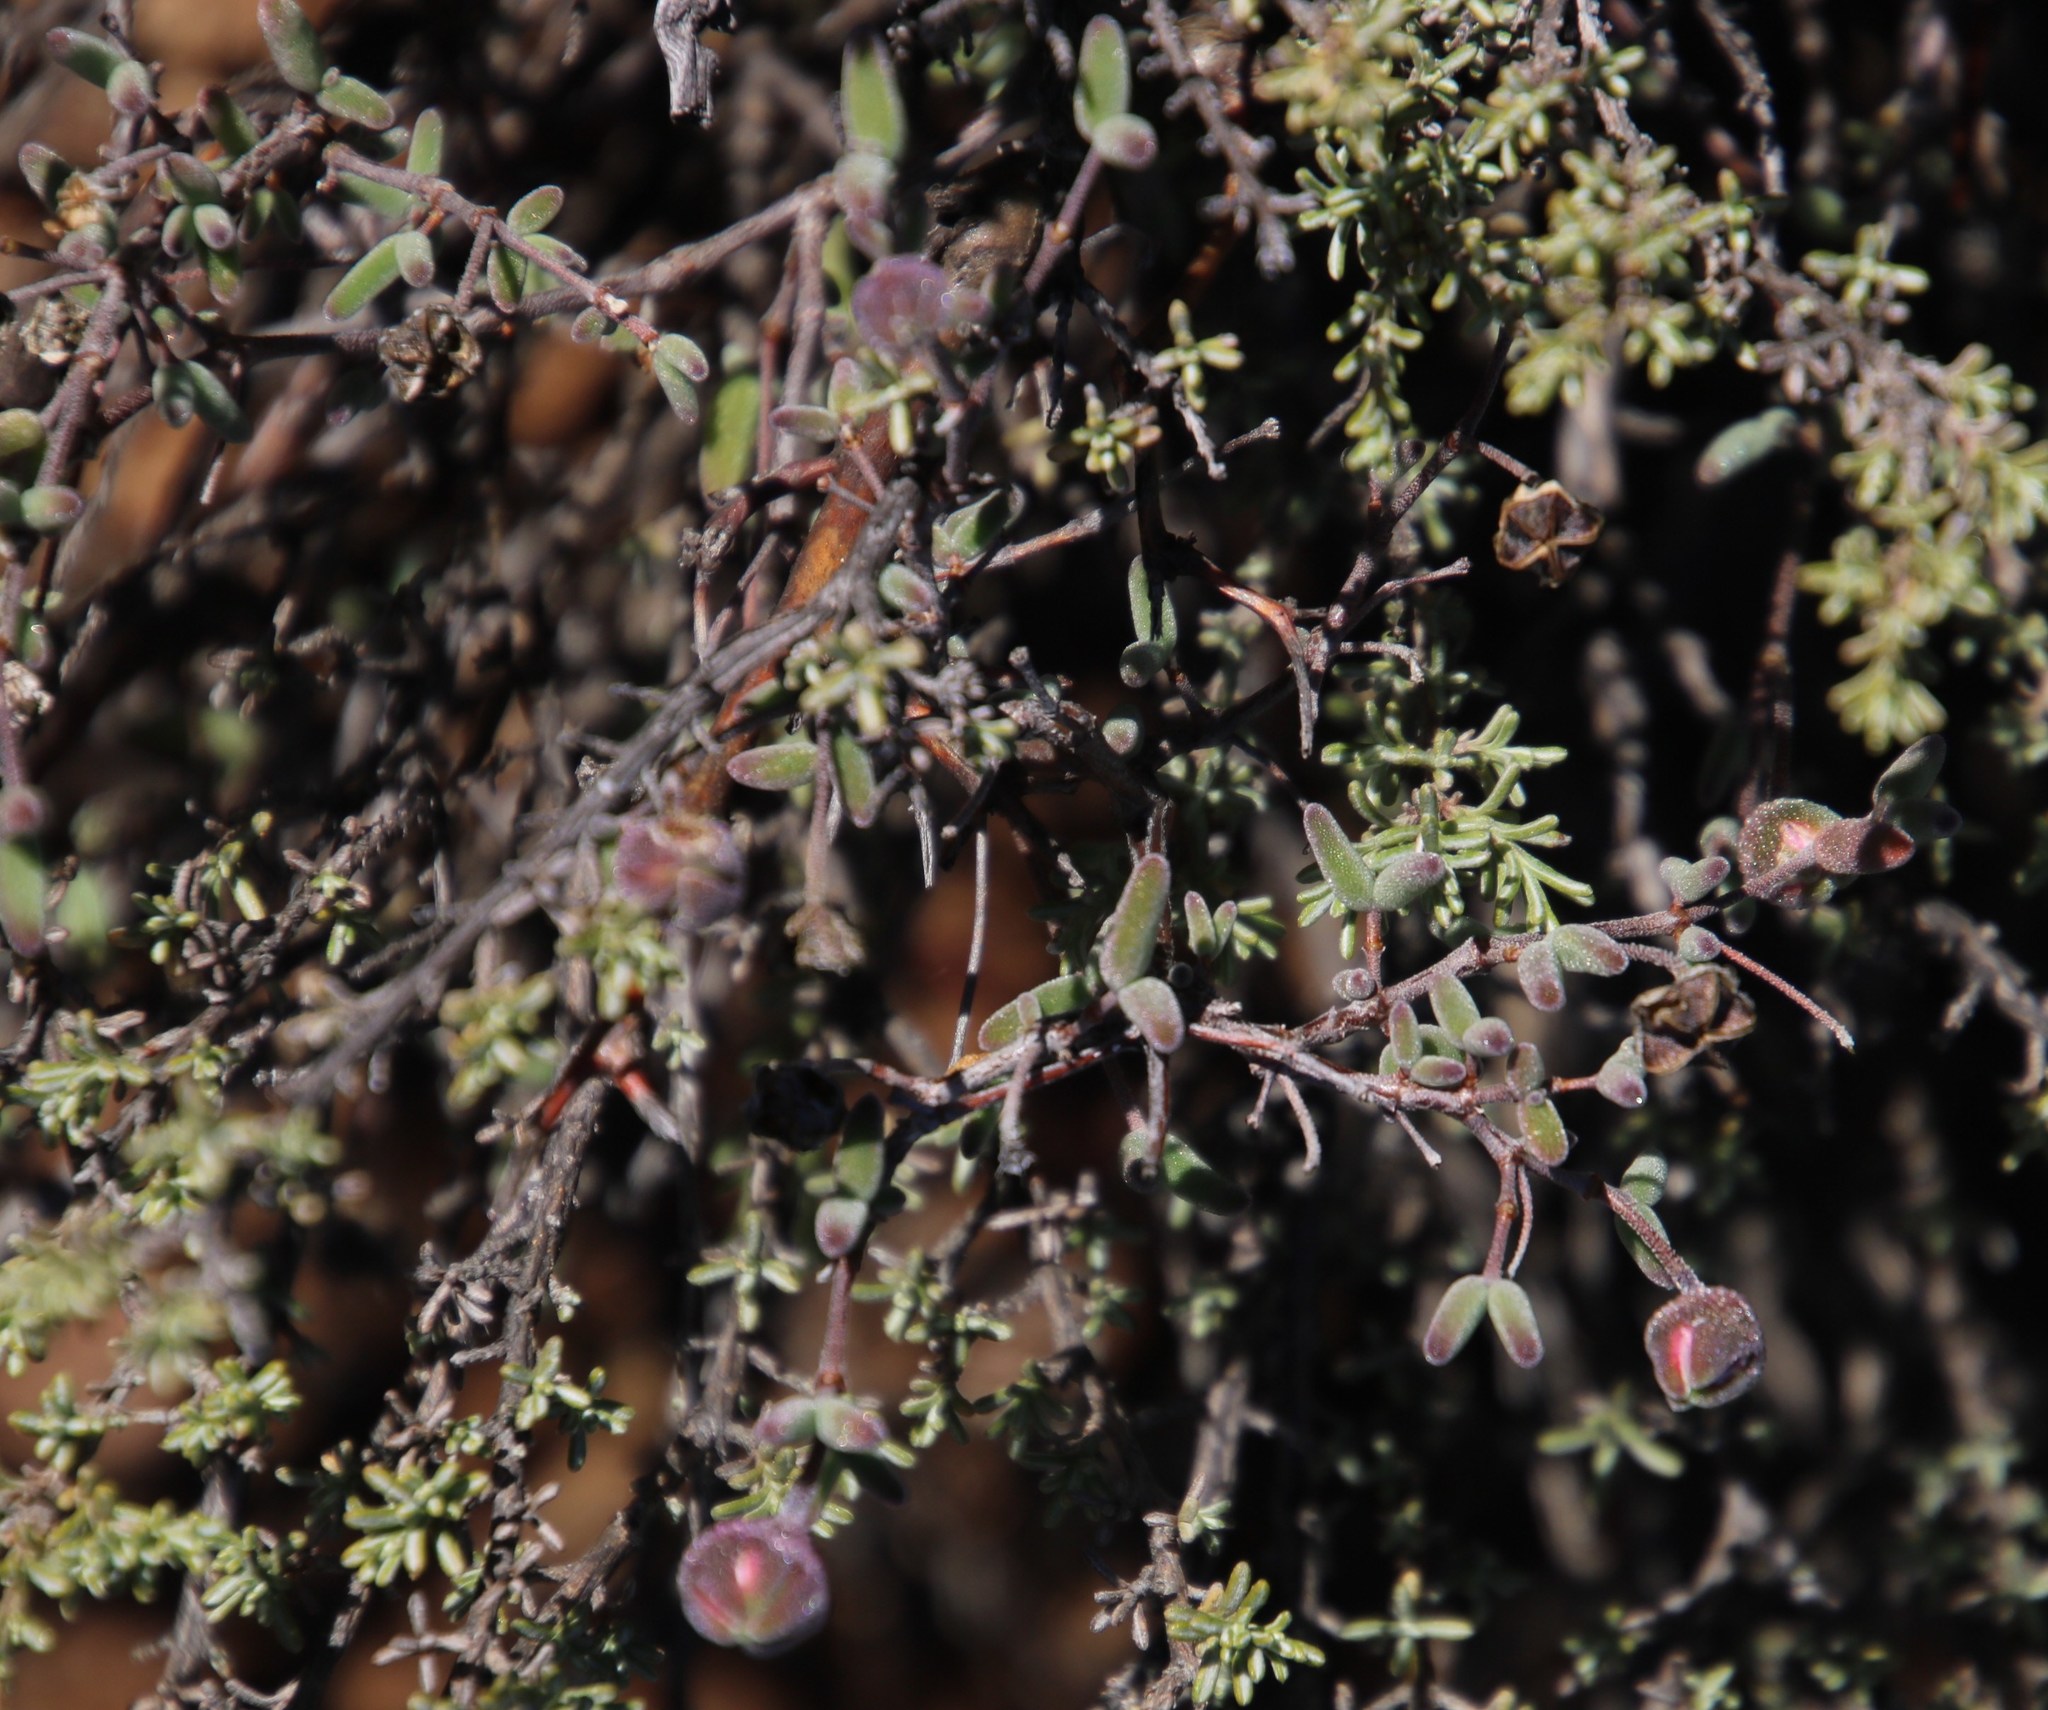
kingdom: Plantae
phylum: Tracheophyta
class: Magnoliopsida
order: Asterales
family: Campanulaceae
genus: Wahlenbergia
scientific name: Wahlenbergia nodosa
